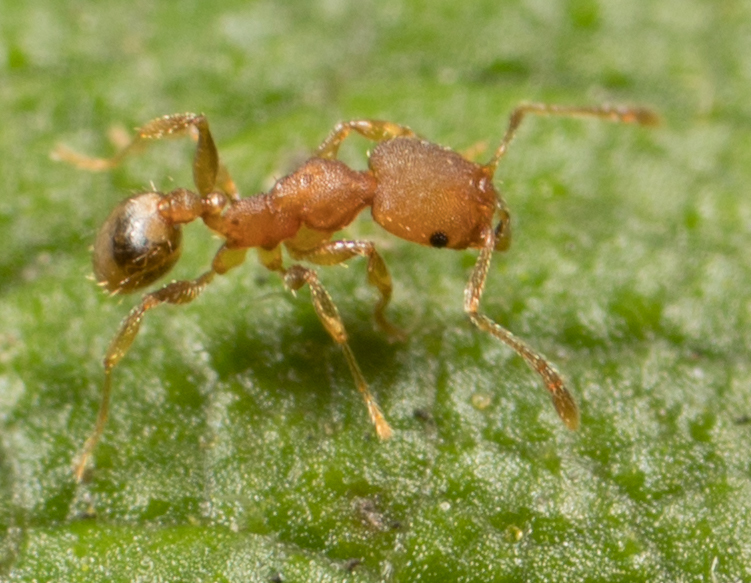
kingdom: Animalia
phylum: Arthropoda
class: Insecta
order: Hymenoptera
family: Formicidae
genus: Pheidole
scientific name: Pheidole bilimeki
